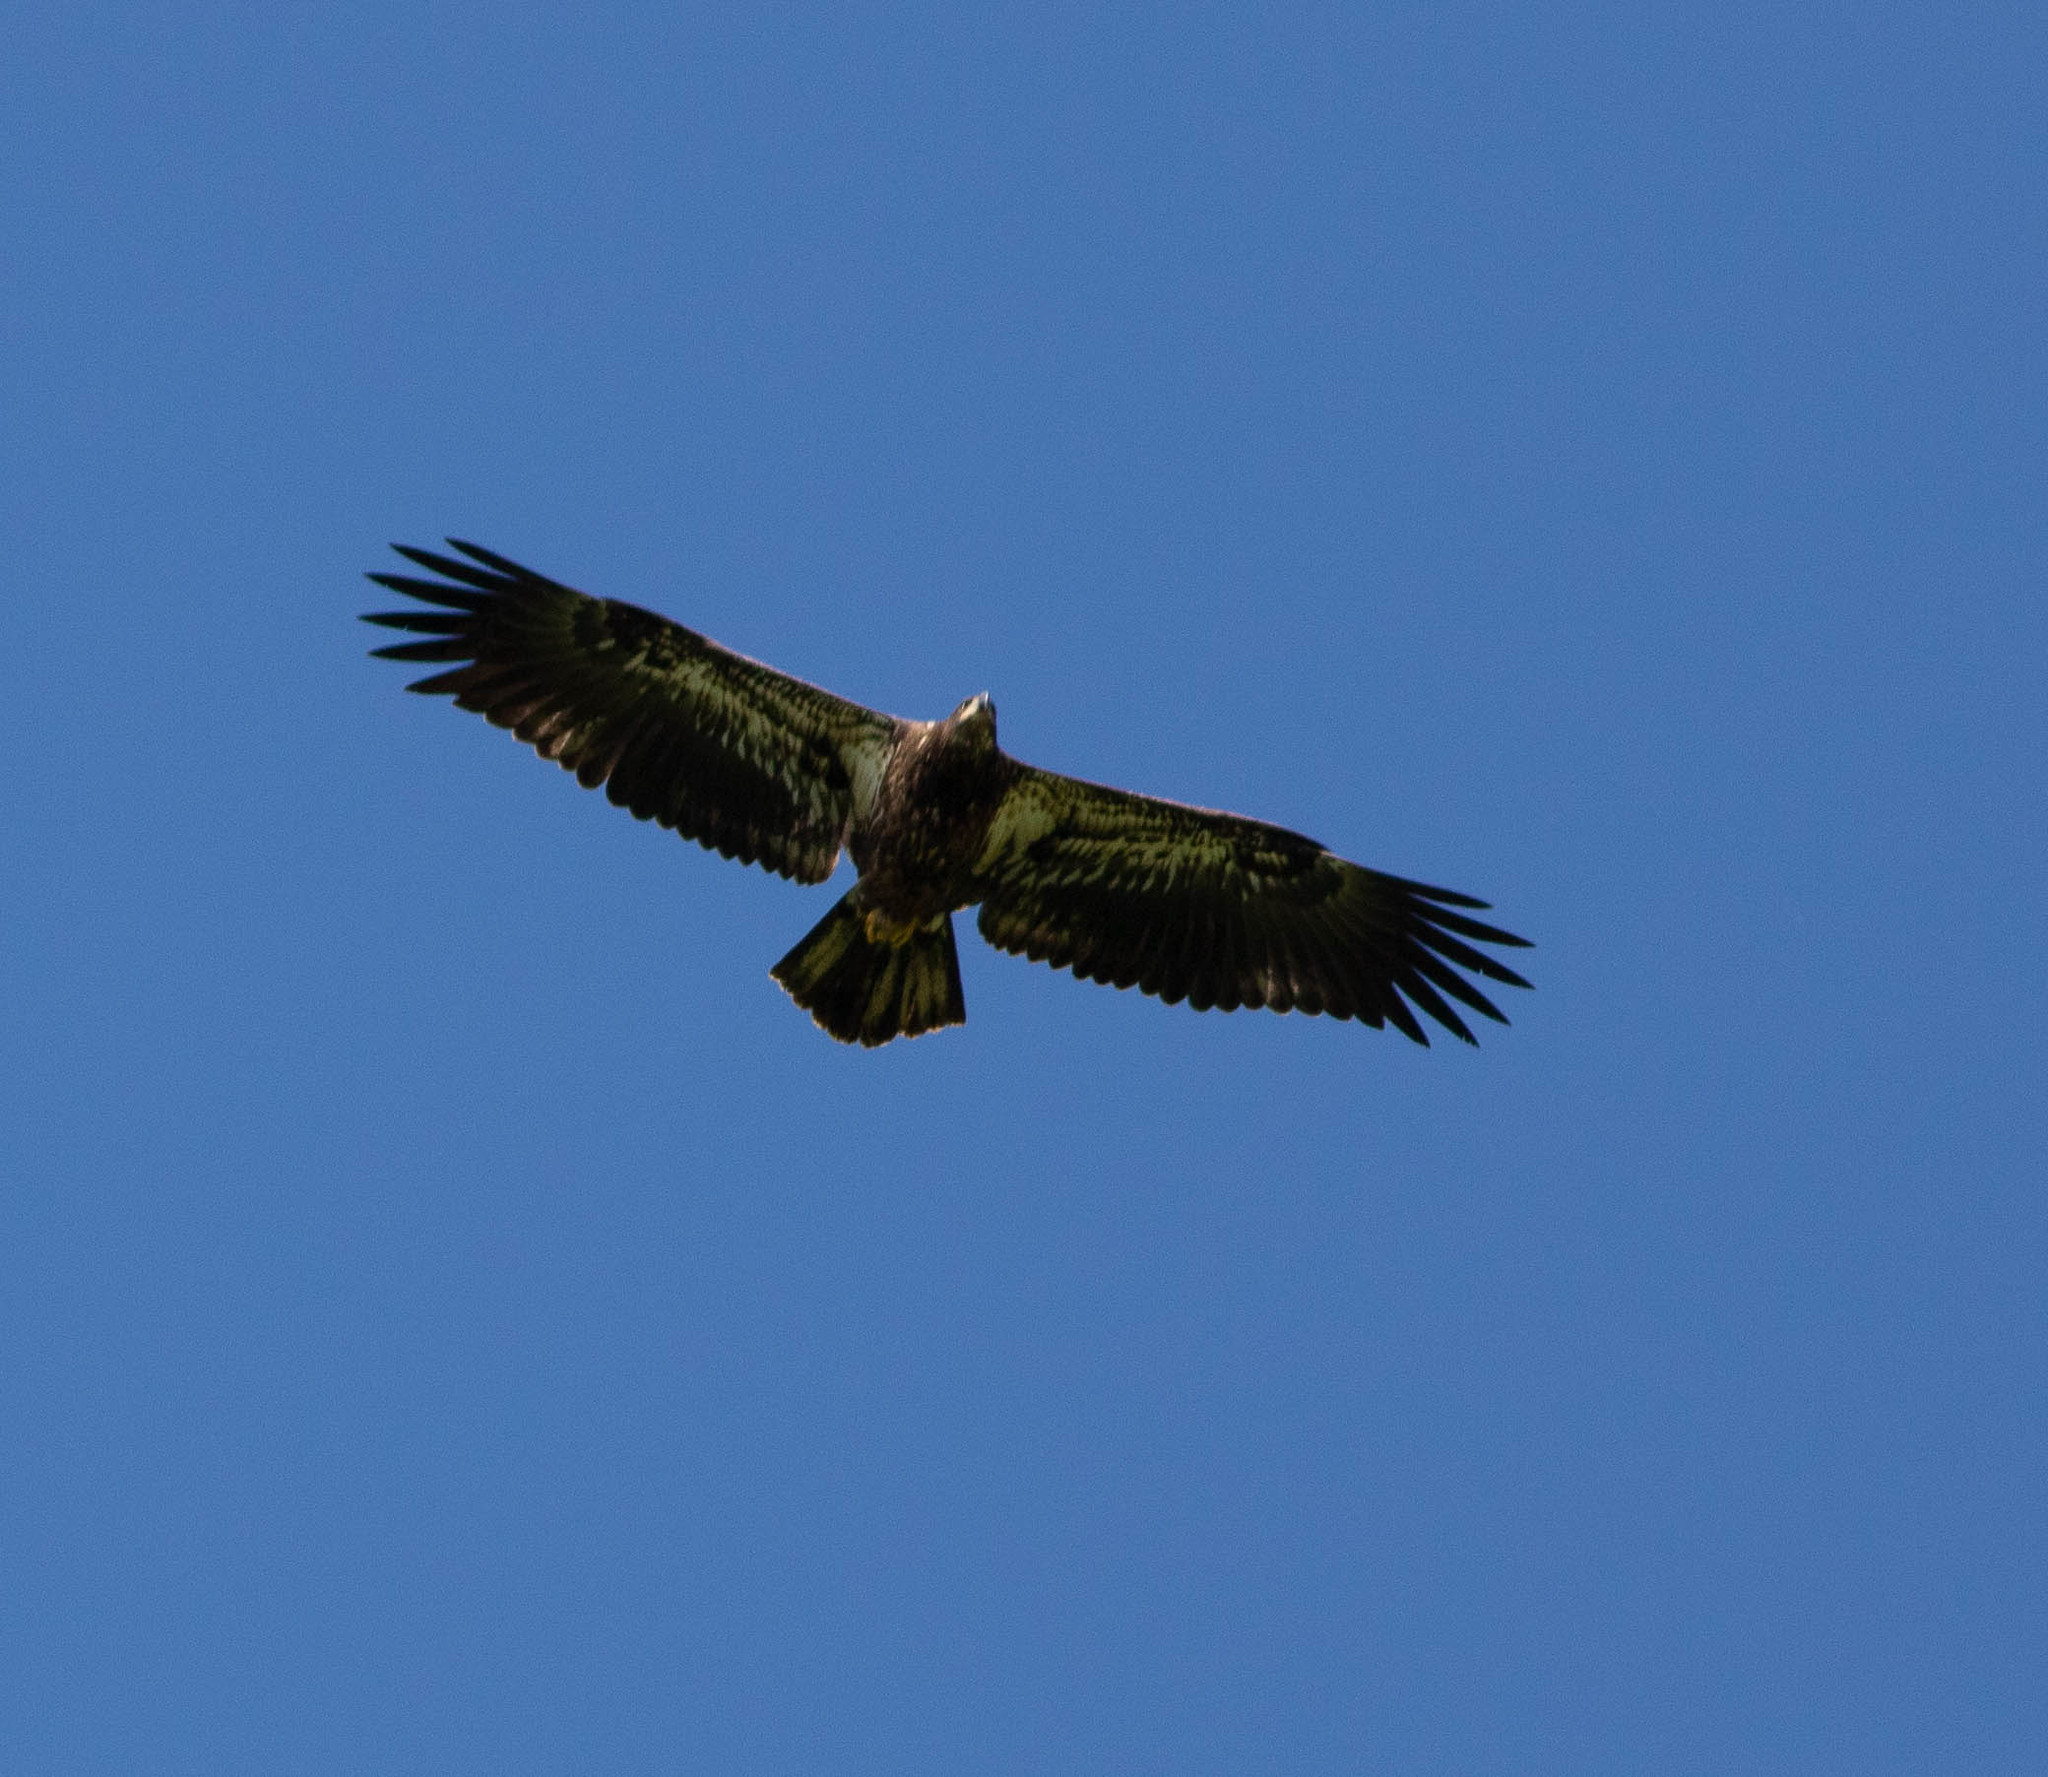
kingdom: Animalia
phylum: Chordata
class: Aves
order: Accipitriformes
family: Accipitridae
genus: Haliaeetus
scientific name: Haliaeetus leucocephalus
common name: Bald eagle
